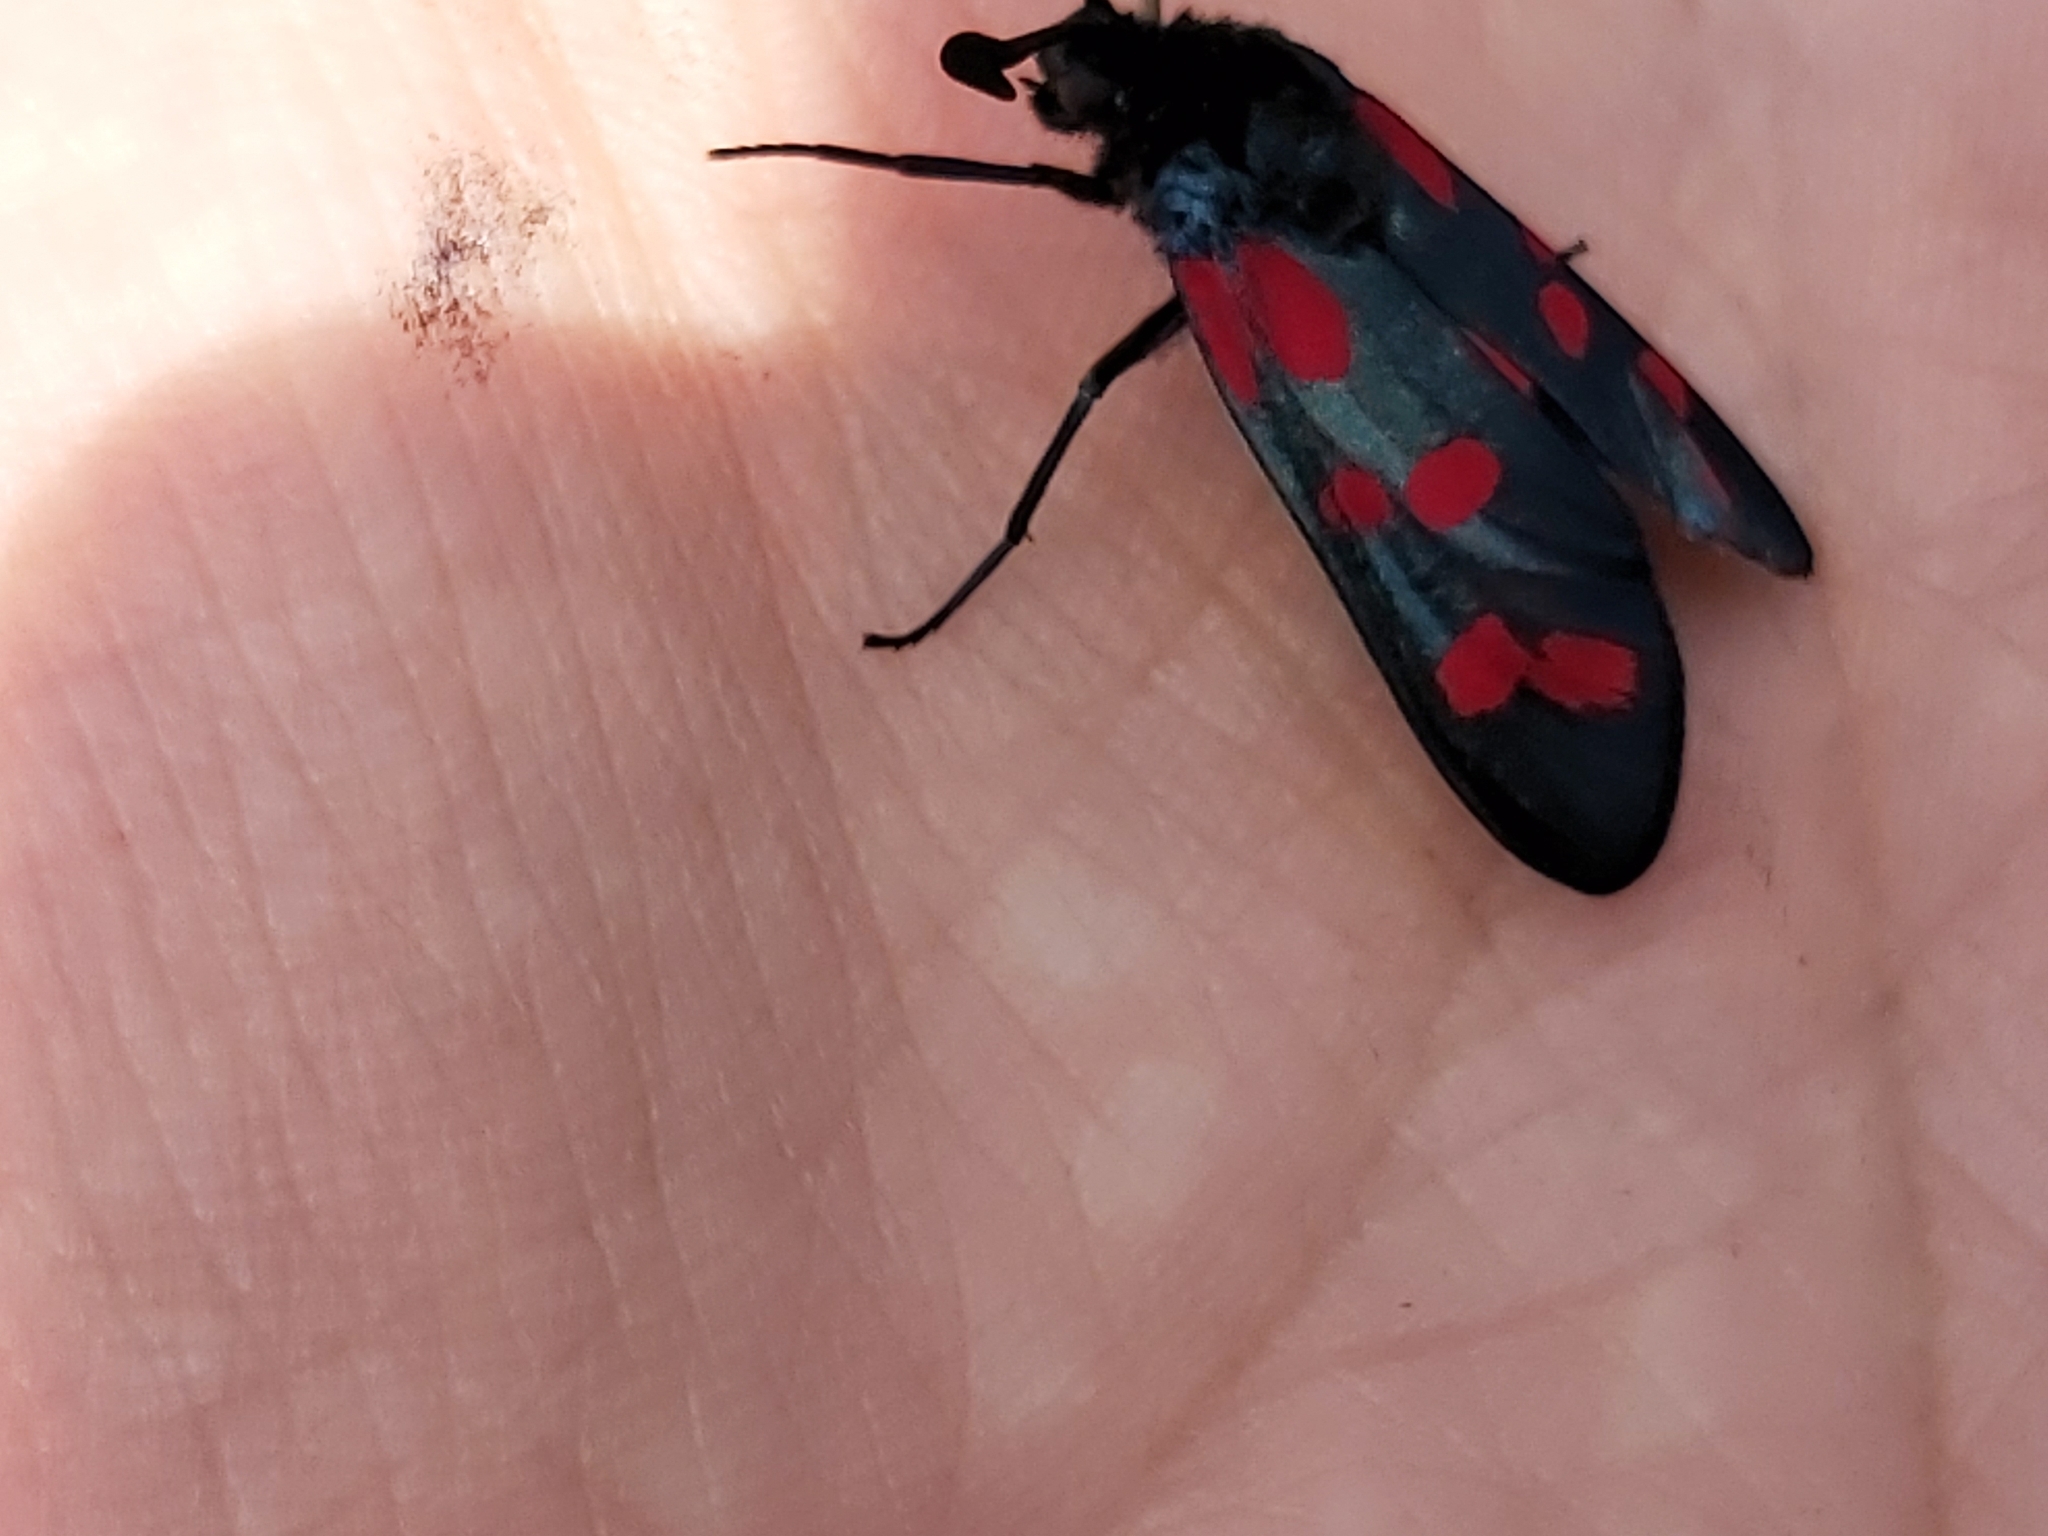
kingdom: Animalia
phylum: Arthropoda
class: Insecta
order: Lepidoptera
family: Zygaenidae
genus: Zygaena
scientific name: Zygaena filipendulae
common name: Six-spot burnet
